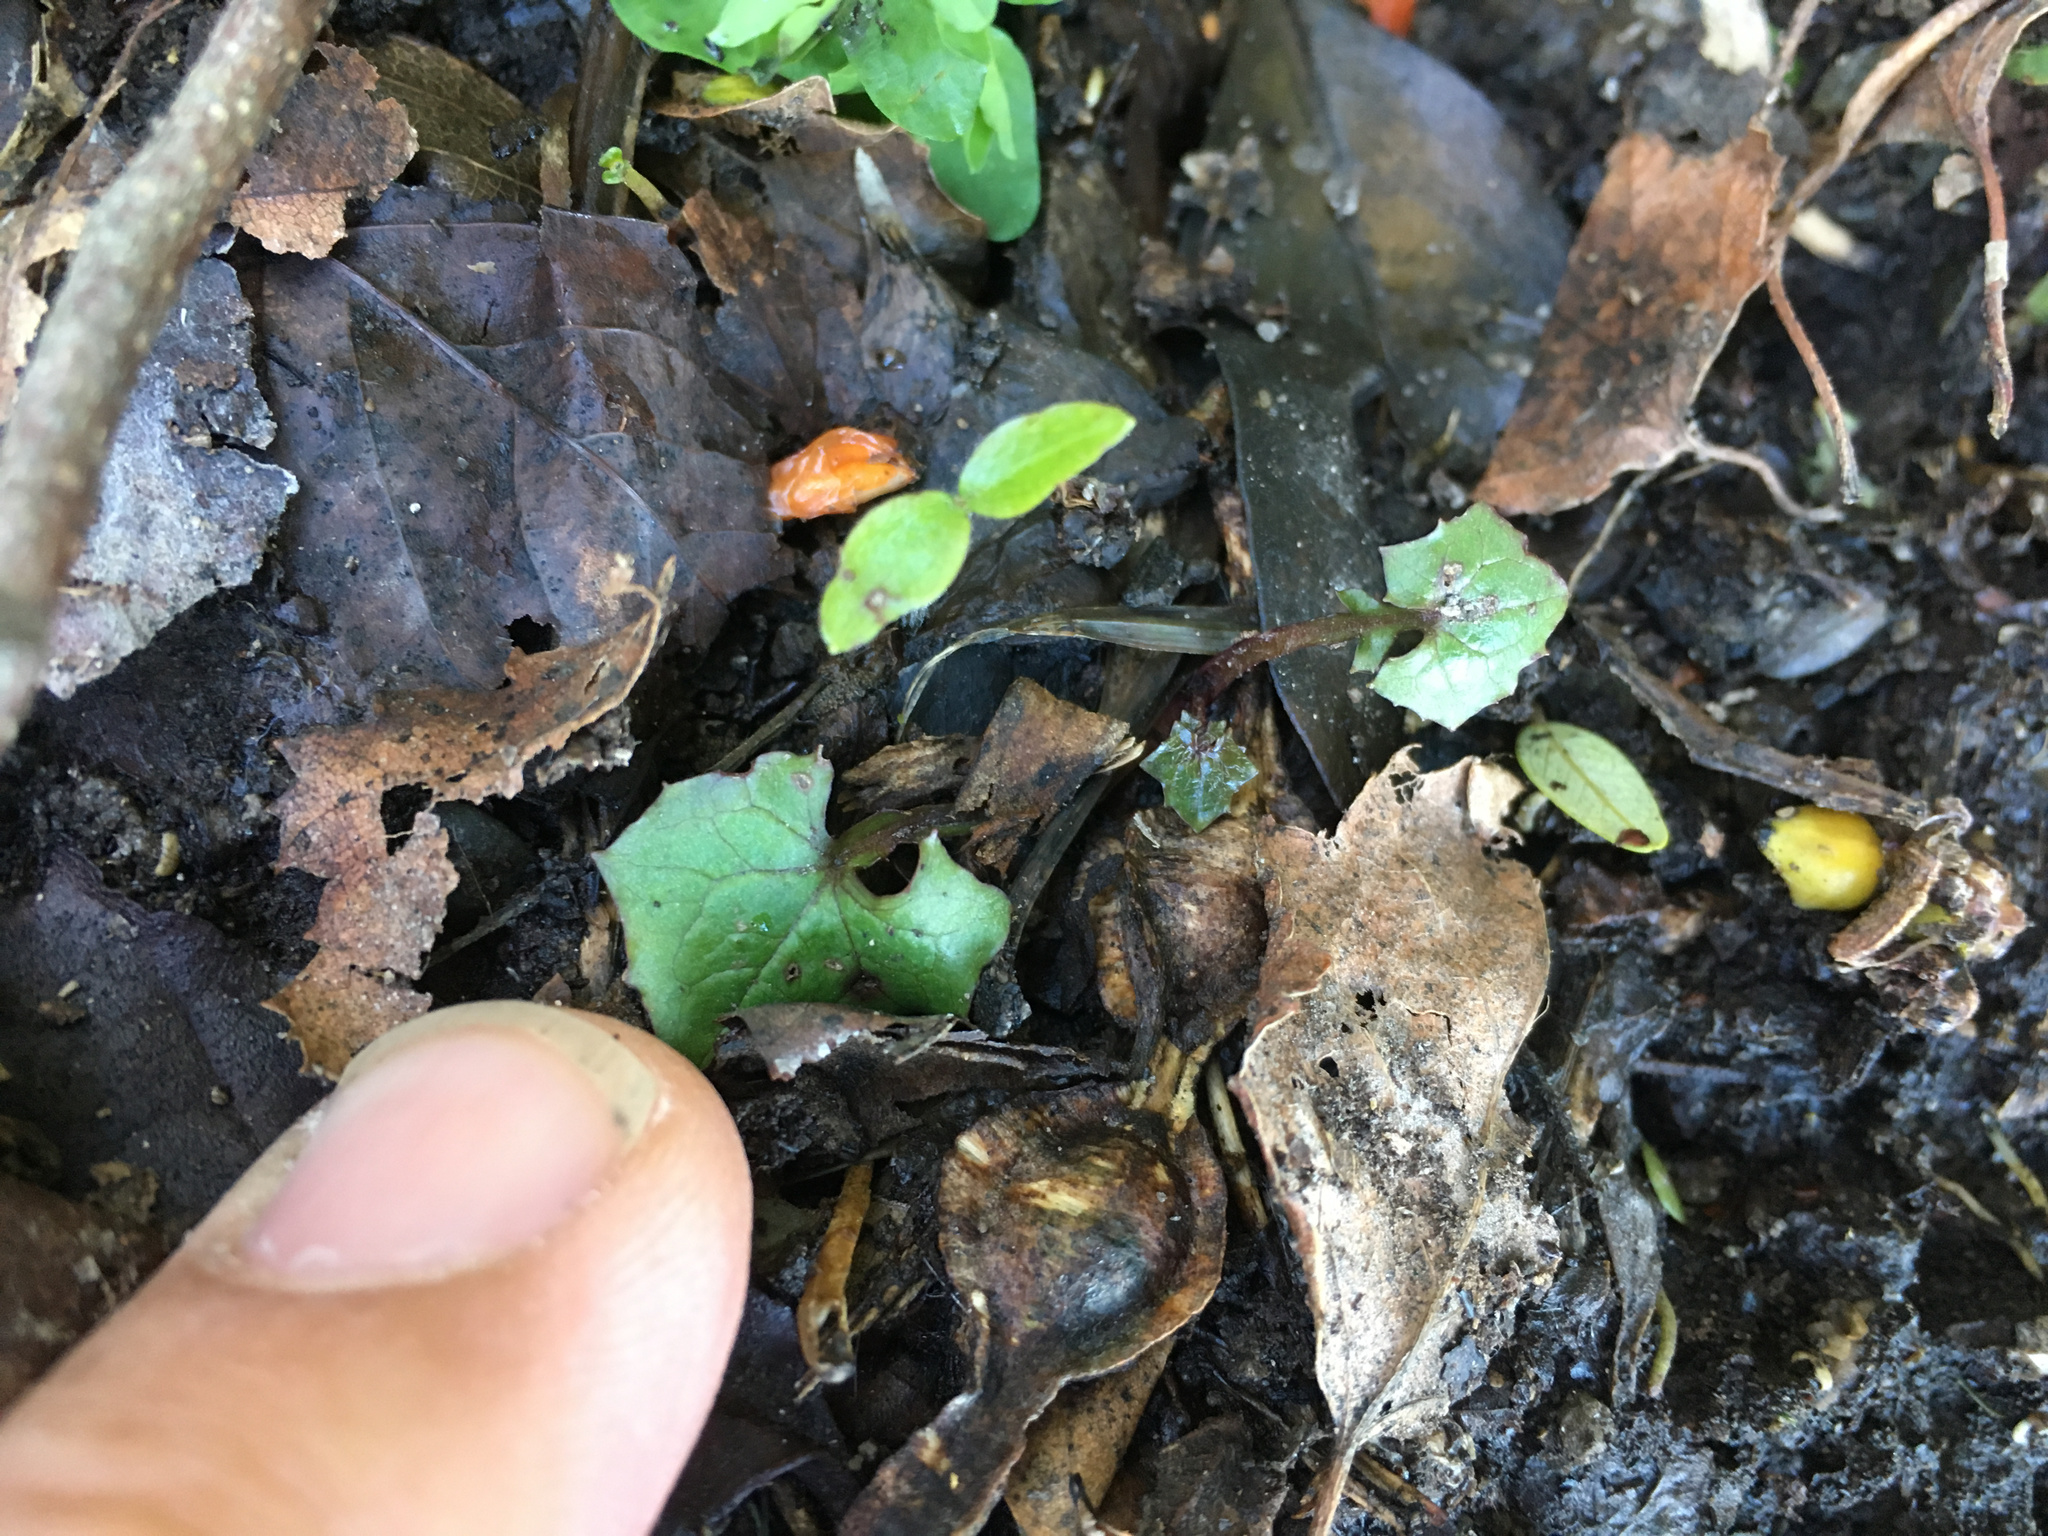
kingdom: Plantae
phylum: Tracheophyta
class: Magnoliopsida
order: Asterales
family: Asteraceae
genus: Mycelis
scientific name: Mycelis muralis
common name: Wall lettuce
